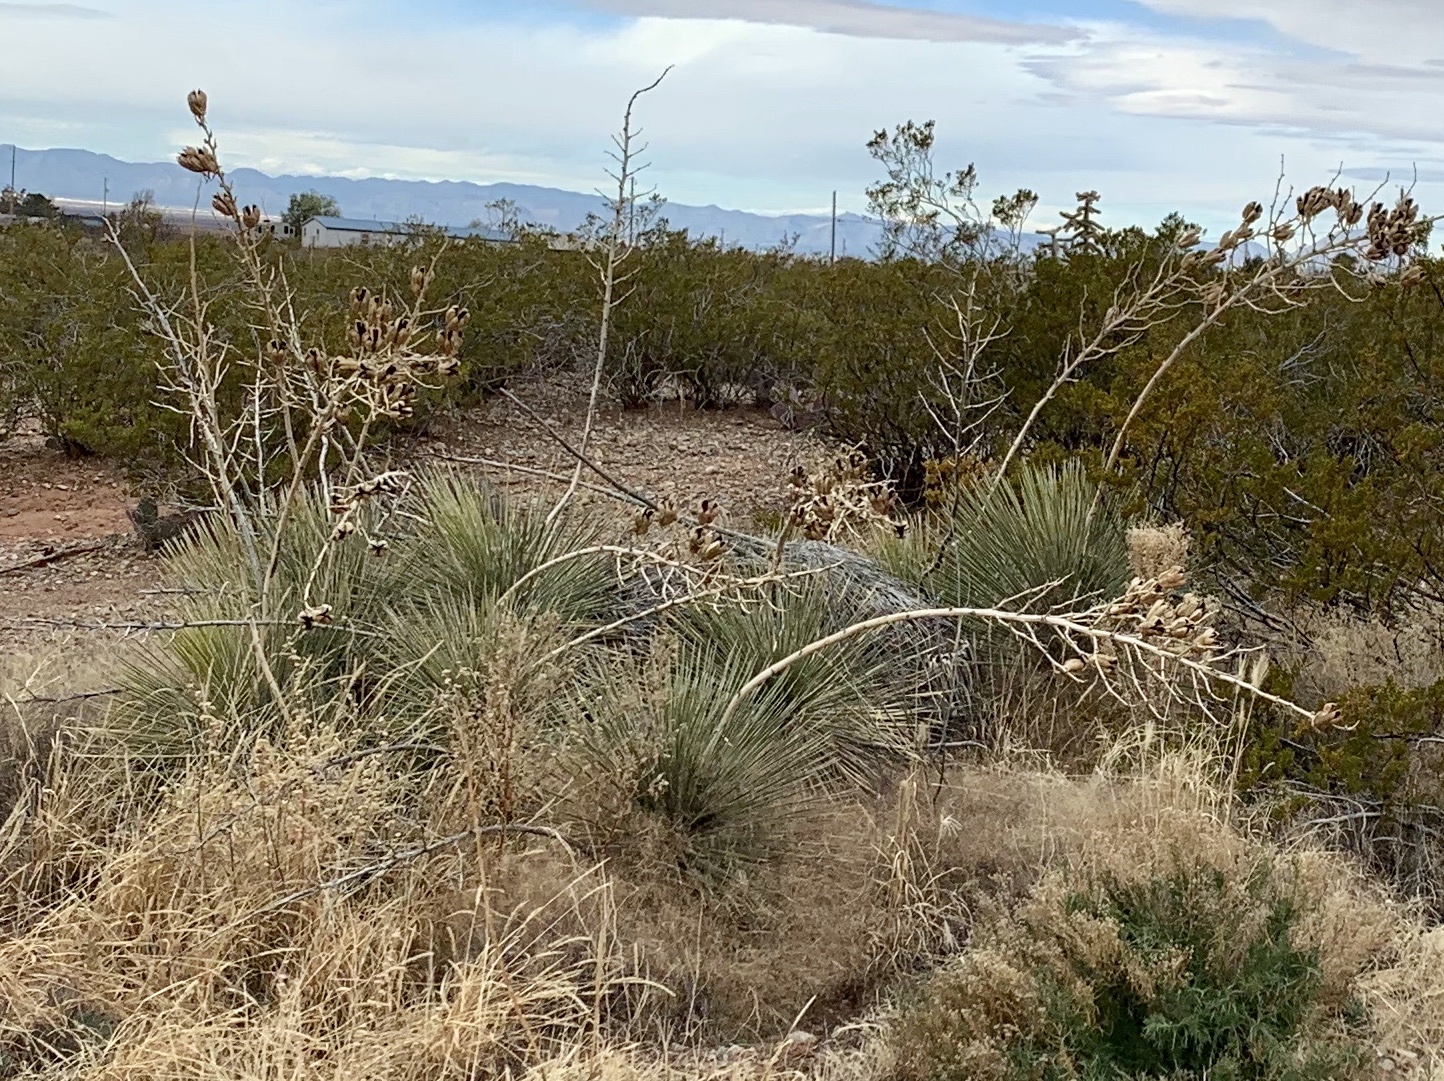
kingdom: Plantae
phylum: Tracheophyta
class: Liliopsida
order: Asparagales
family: Asparagaceae
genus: Yucca
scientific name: Yucca elata
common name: Palmella
